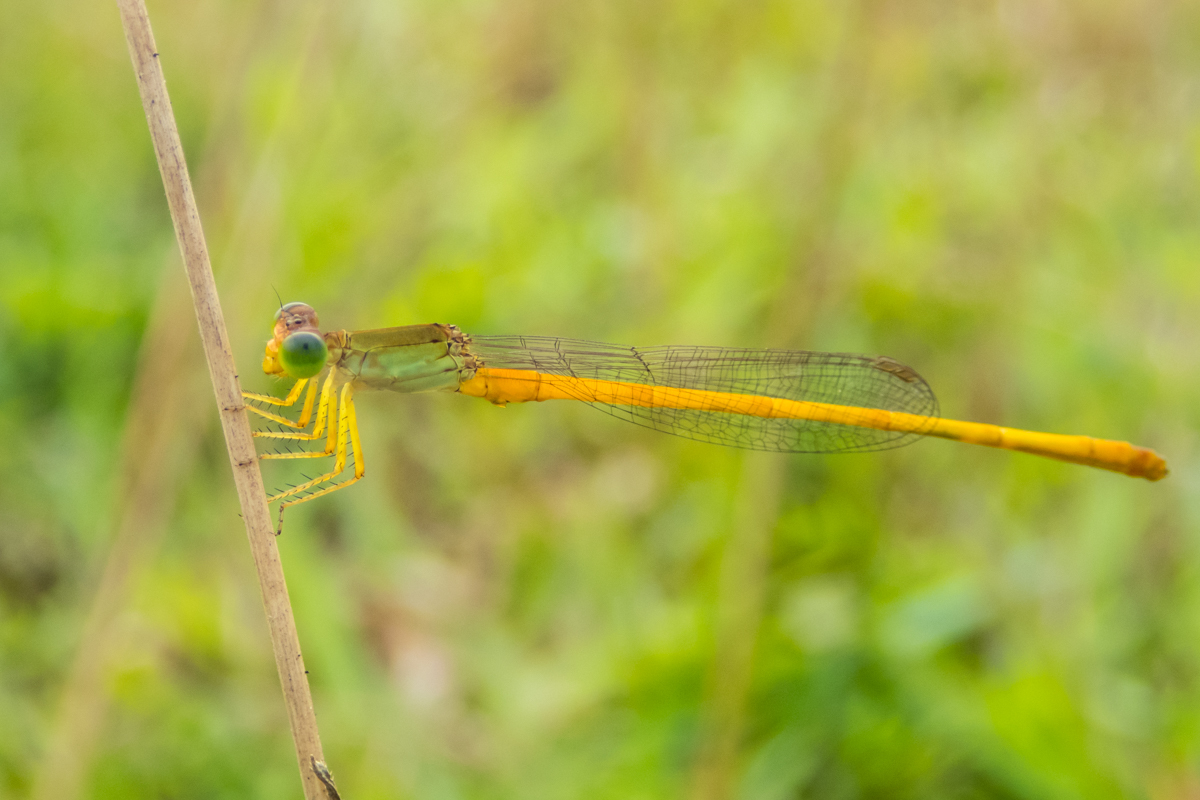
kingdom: Animalia
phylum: Arthropoda
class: Insecta
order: Odonata
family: Coenagrionidae
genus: Ceriagrion
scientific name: Ceriagrion calamineum
